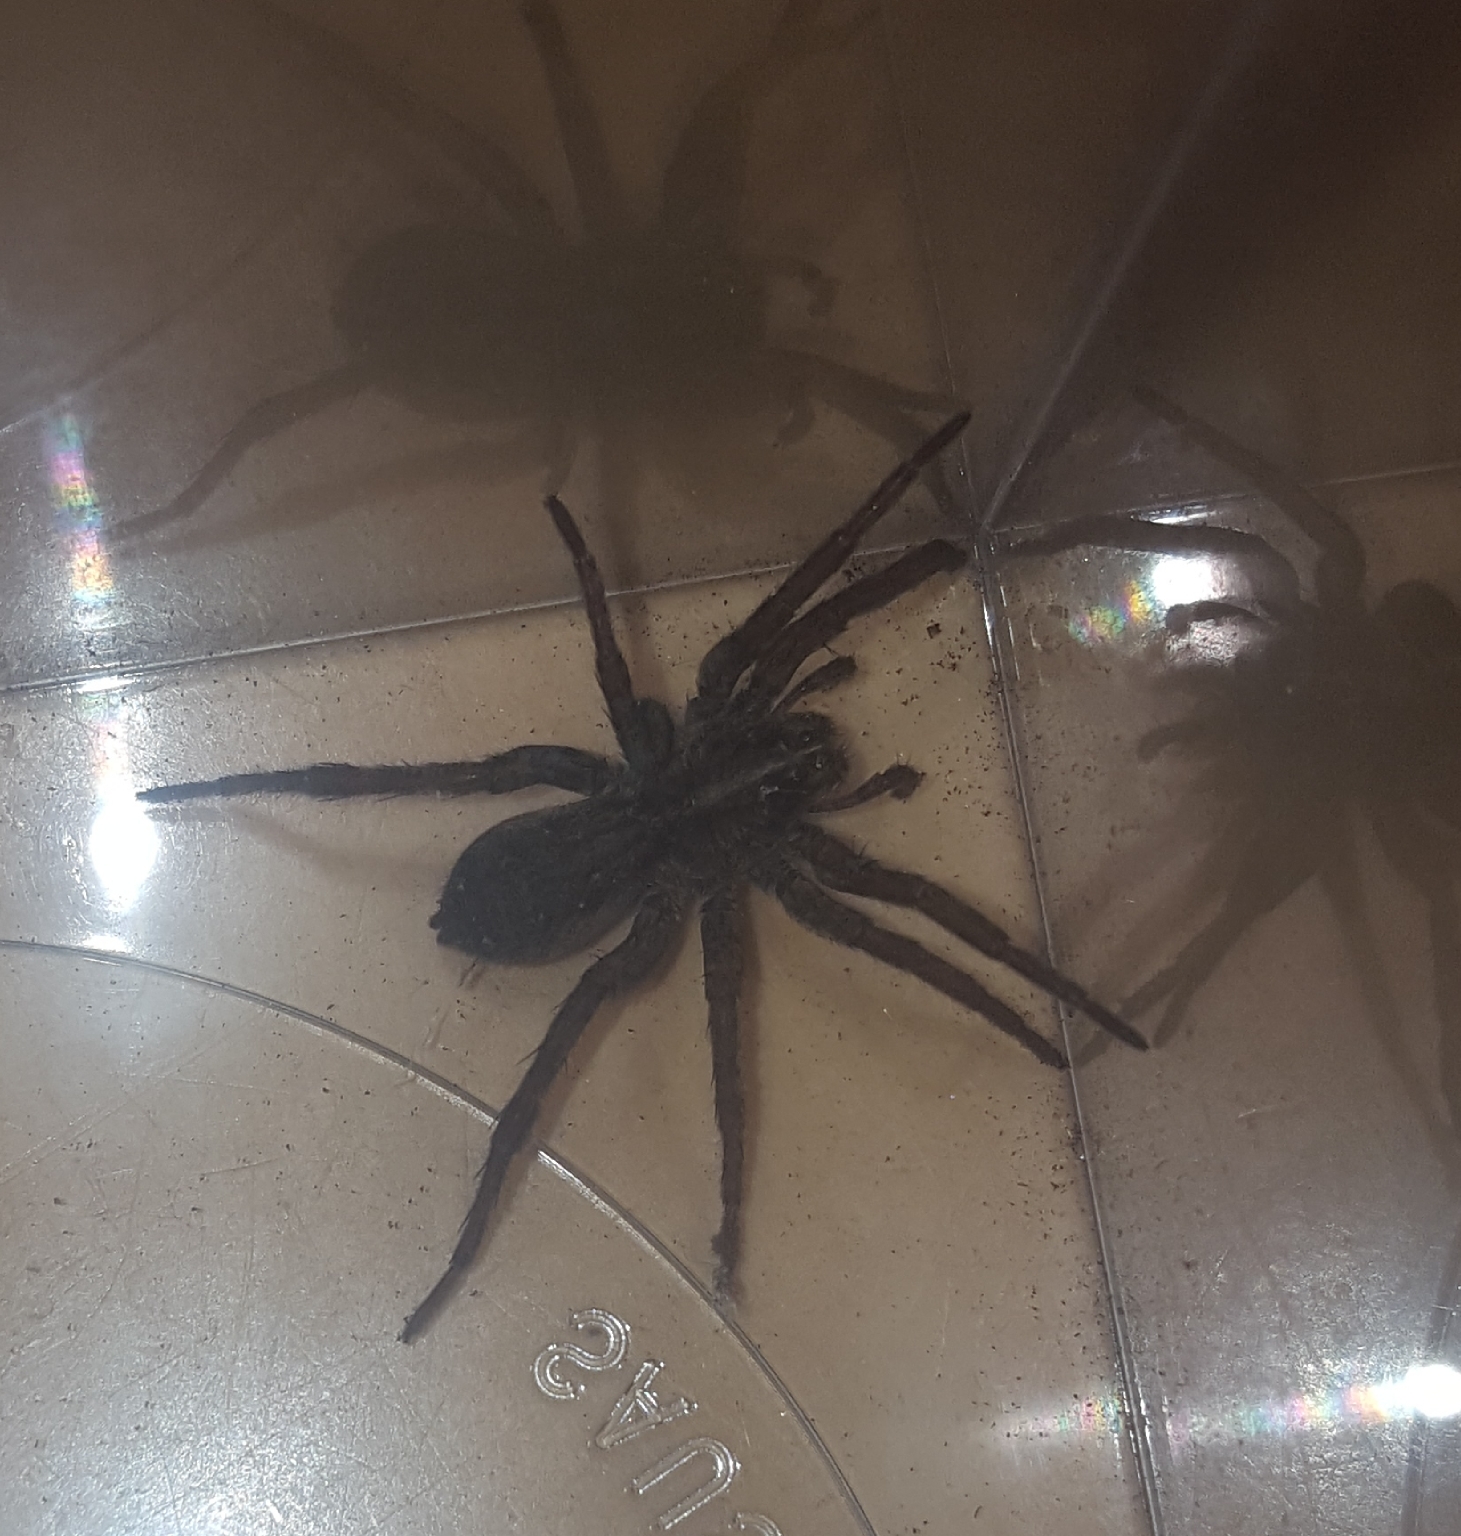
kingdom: Animalia
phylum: Arthropoda
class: Arachnida
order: Araneae
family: Lycosidae
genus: Tigrosa
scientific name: Tigrosa helluo
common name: Wetland giant wolf spider
